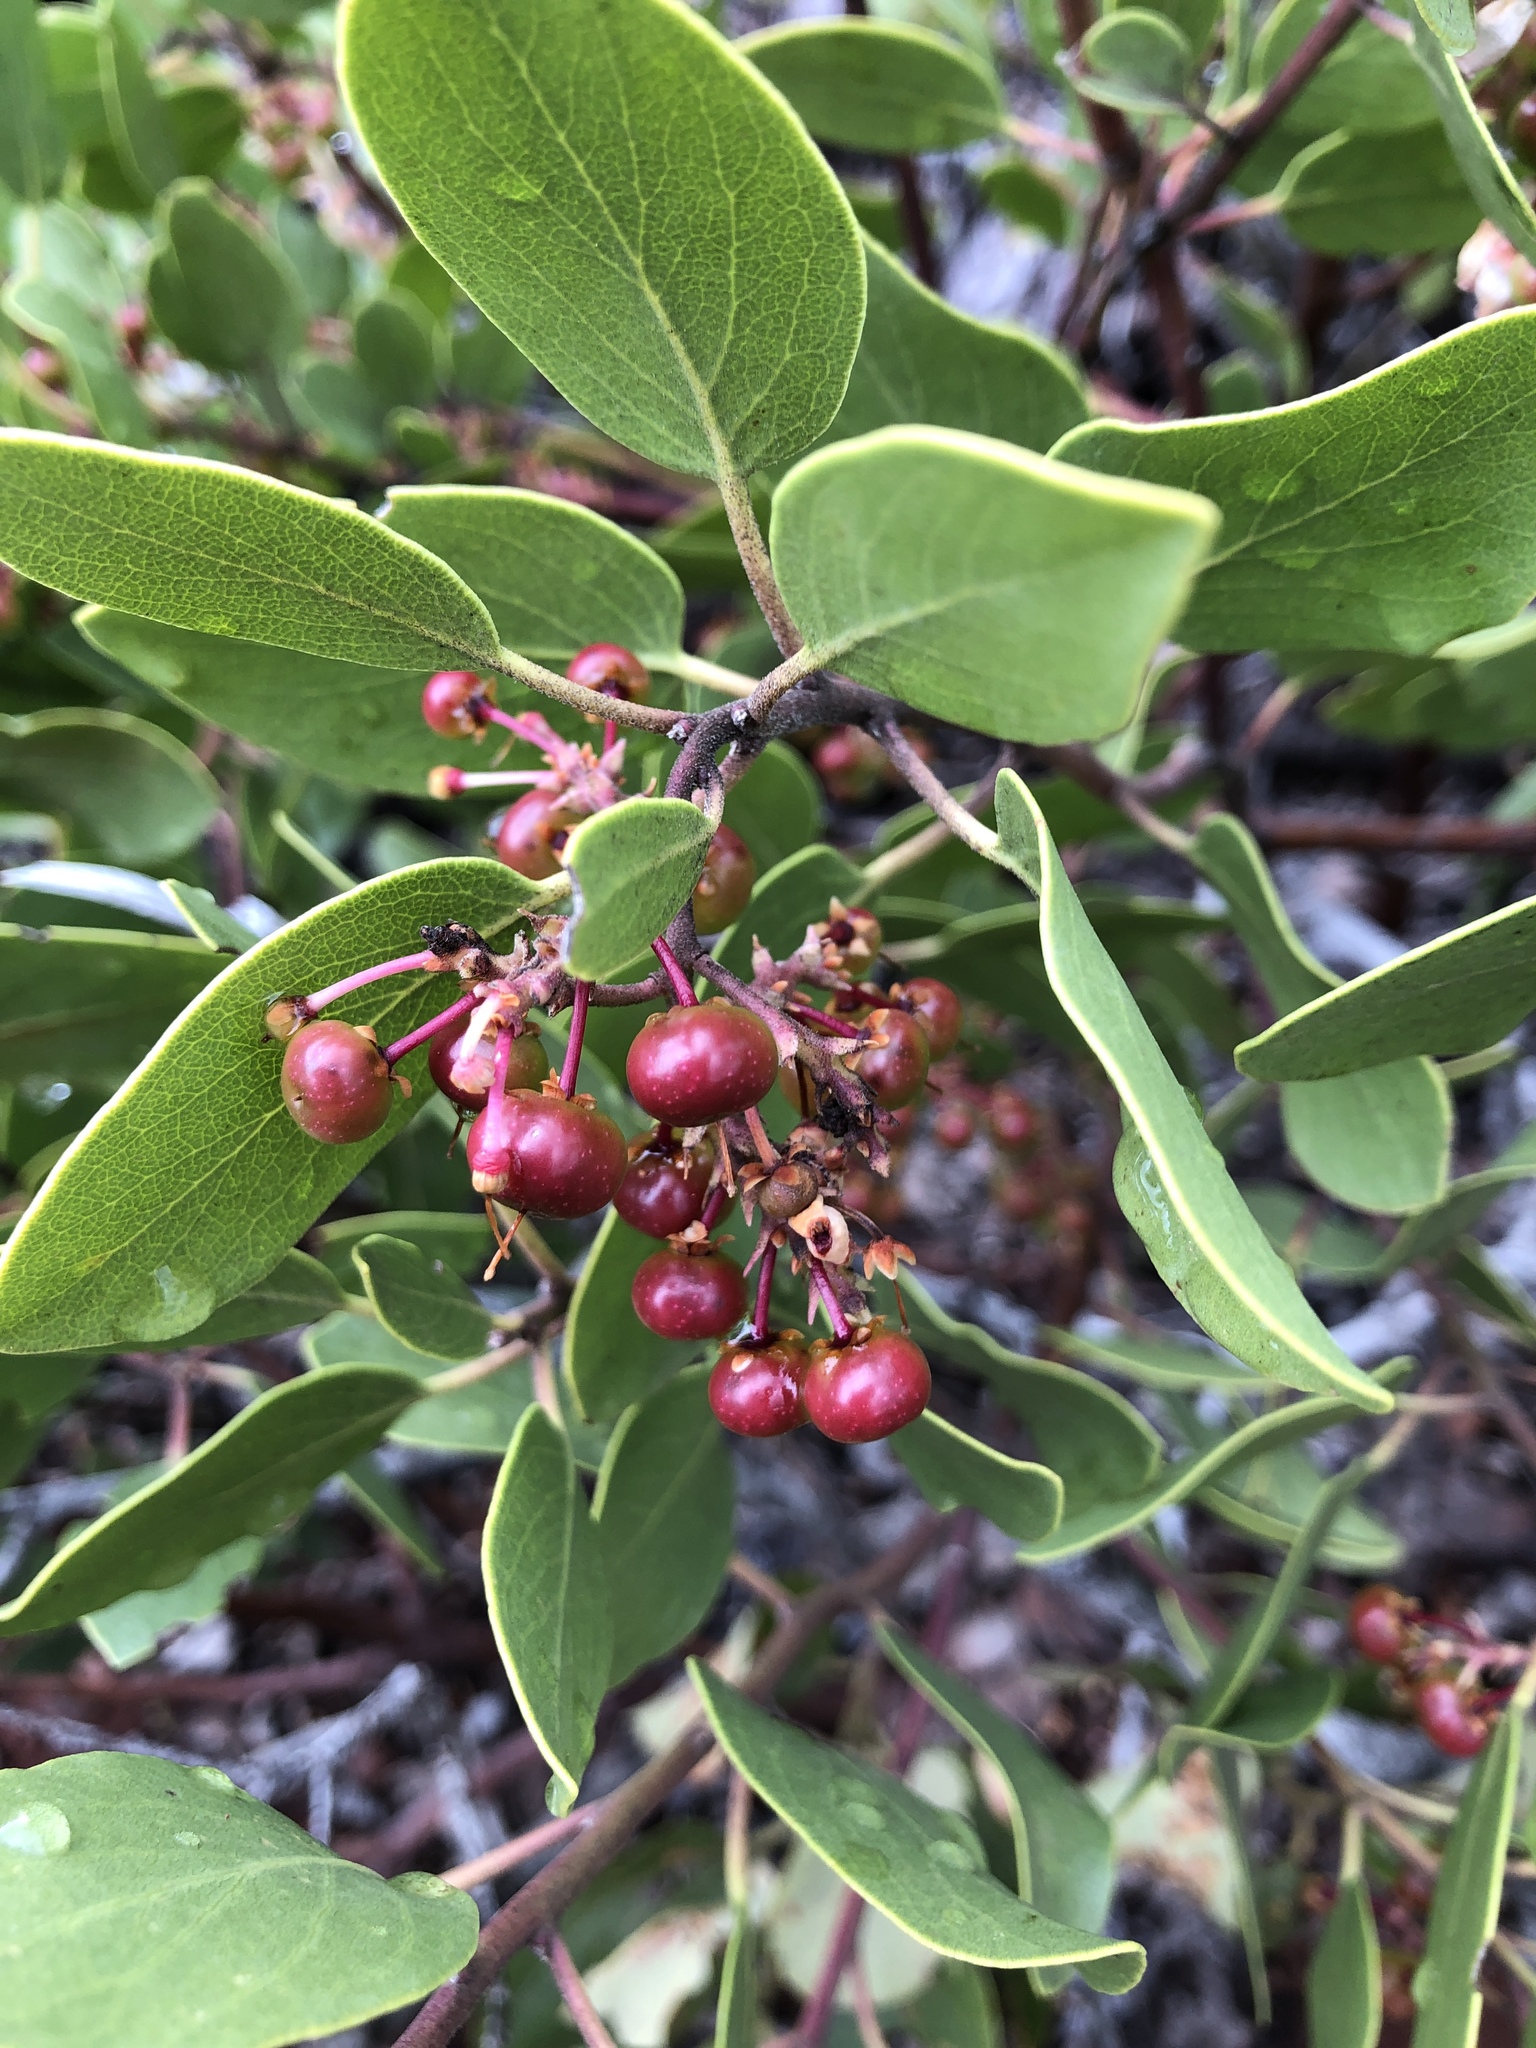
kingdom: Plantae
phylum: Tracheophyta
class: Magnoliopsida
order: Ericales
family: Ericaceae
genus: Arctostaphylos
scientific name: Arctostaphylos patula
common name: Green-leaf manzanita
